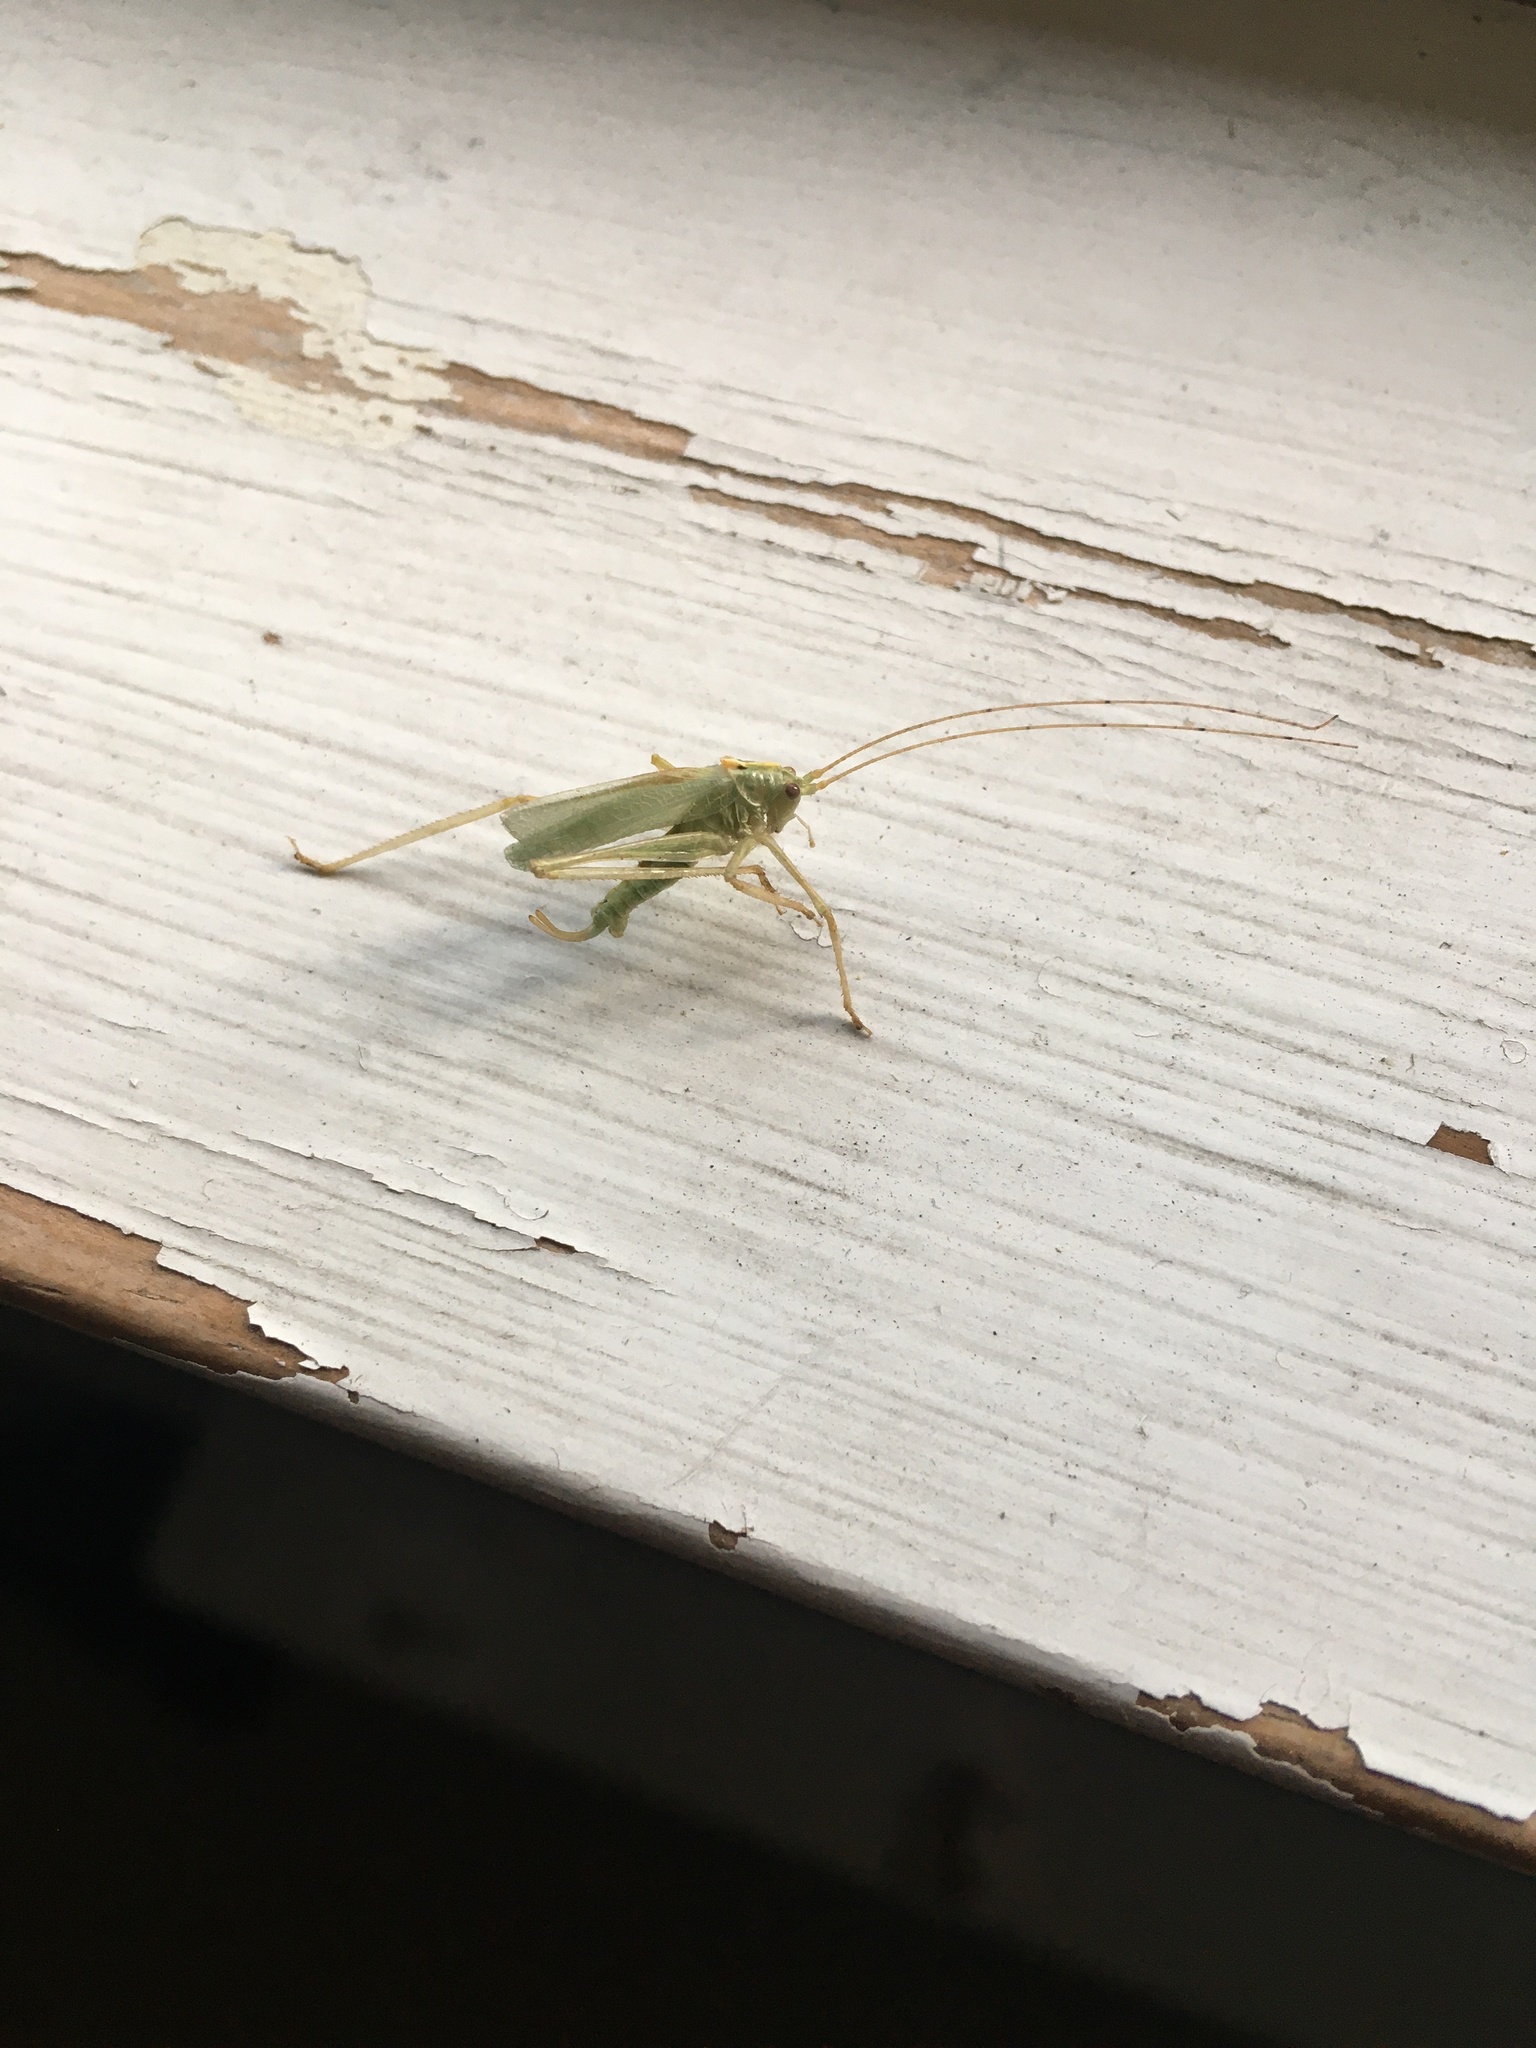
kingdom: Animalia
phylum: Arthropoda
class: Insecta
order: Orthoptera
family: Tettigoniidae
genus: Meconema
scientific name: Meconema thalassinum
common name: Oak bush-cricket
